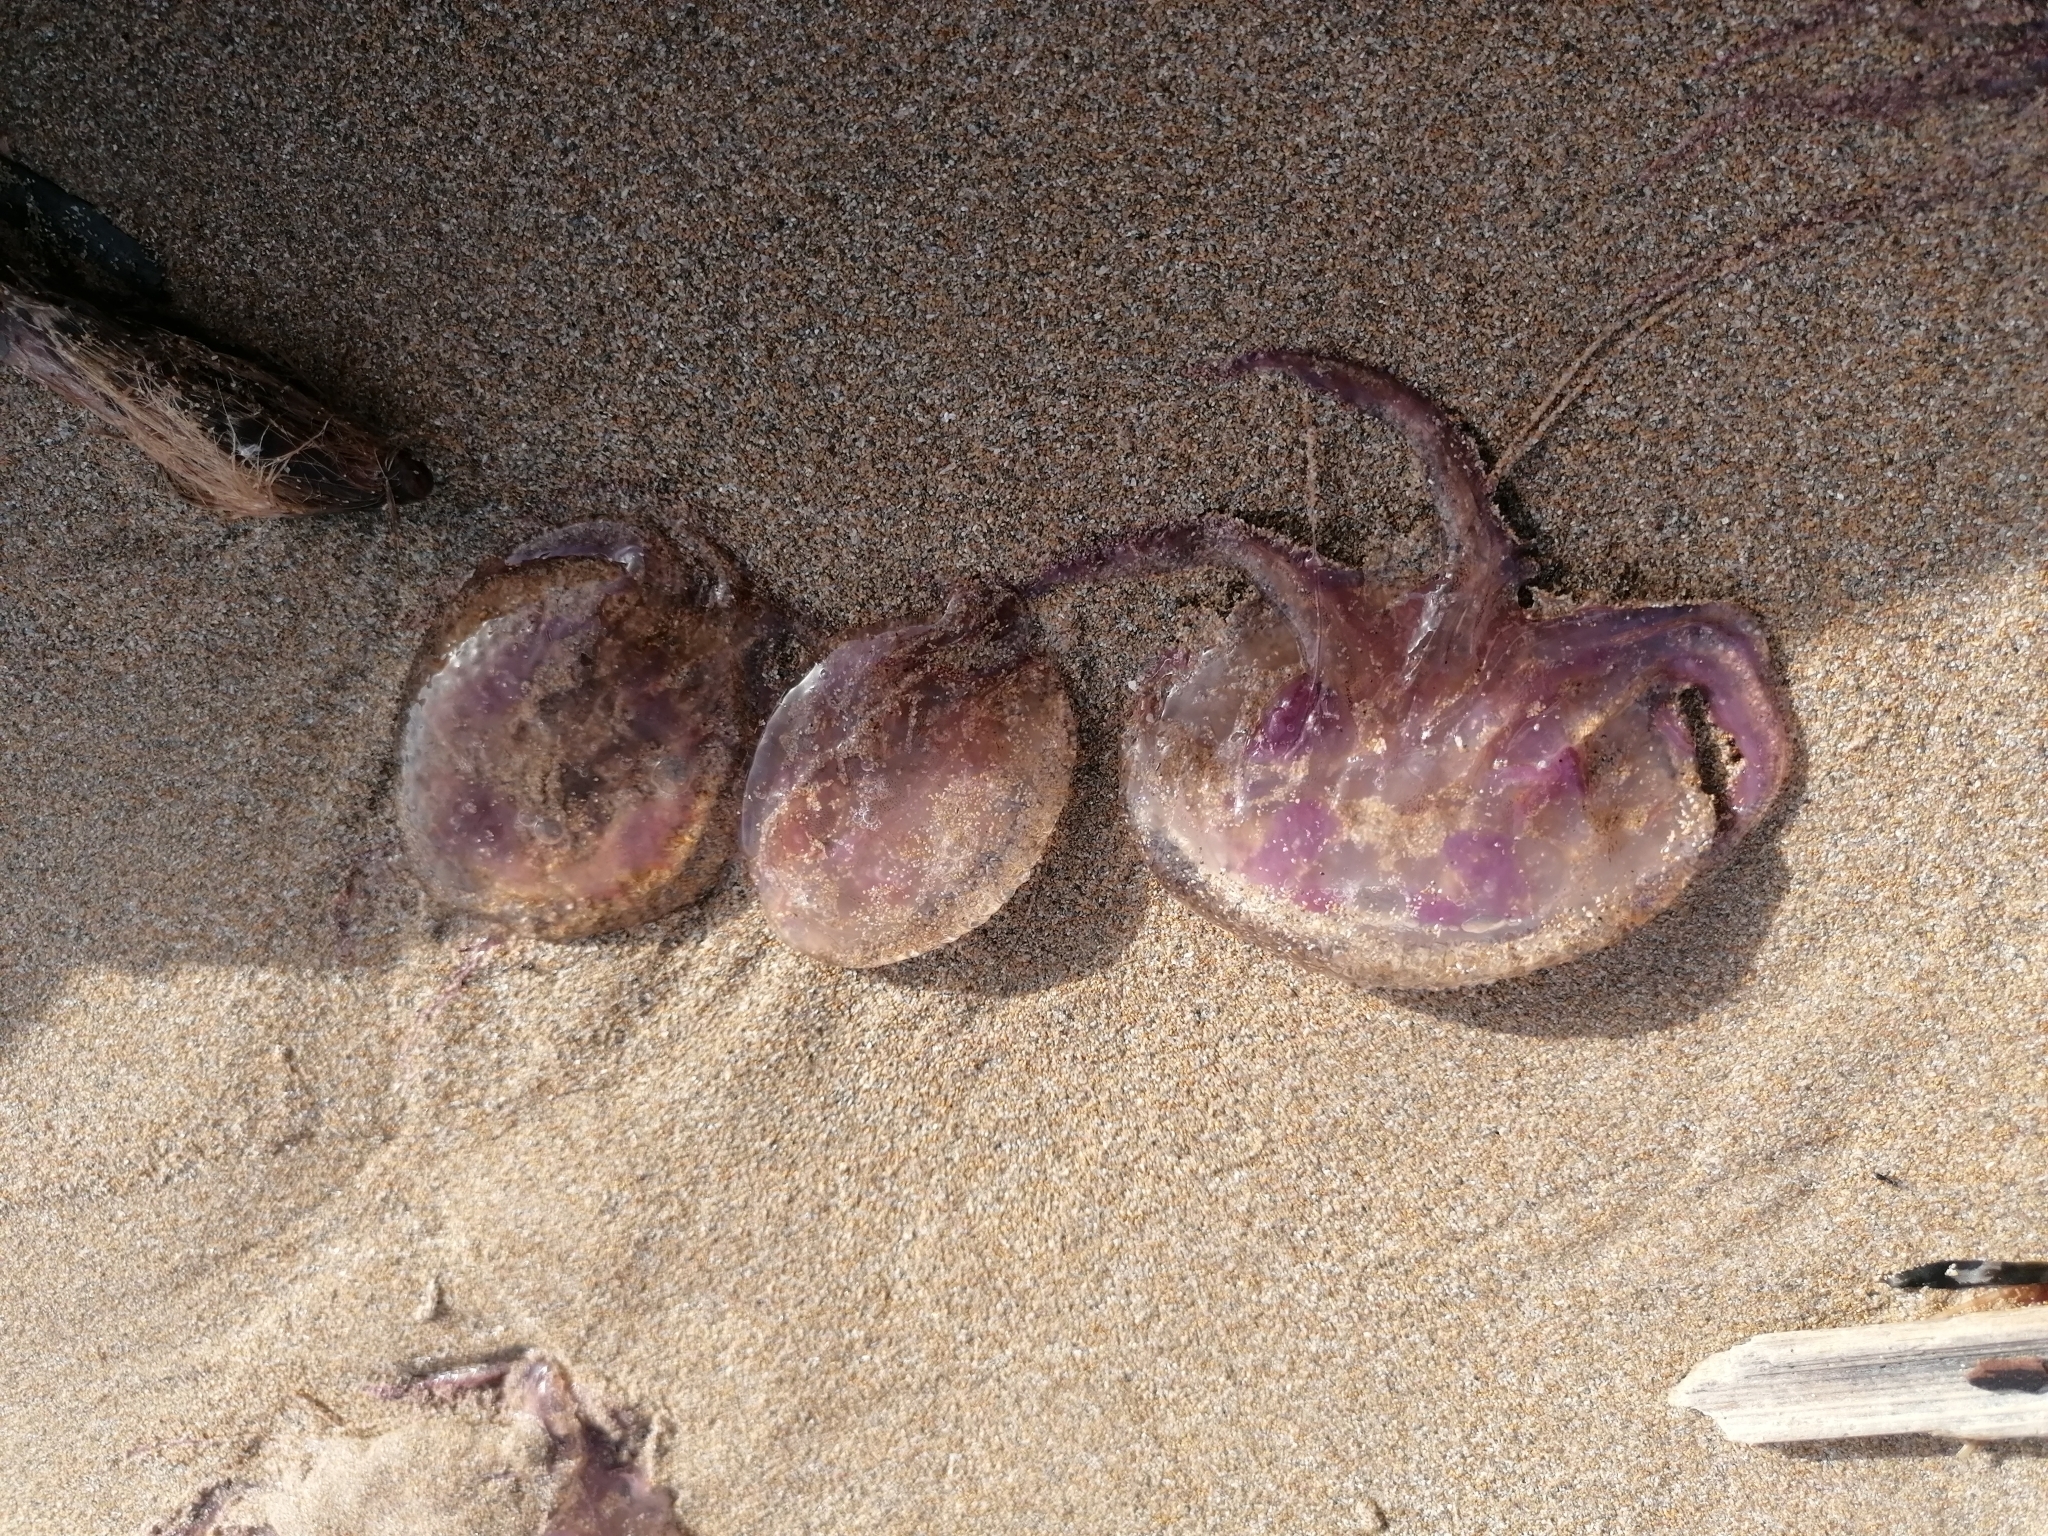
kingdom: Animalia
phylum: Cnidaria
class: Scyphozoa
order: Semaeostomeae
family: Pelagiidae
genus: Pelagia
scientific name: Pelagia noctiluca
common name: Mauve stinger
